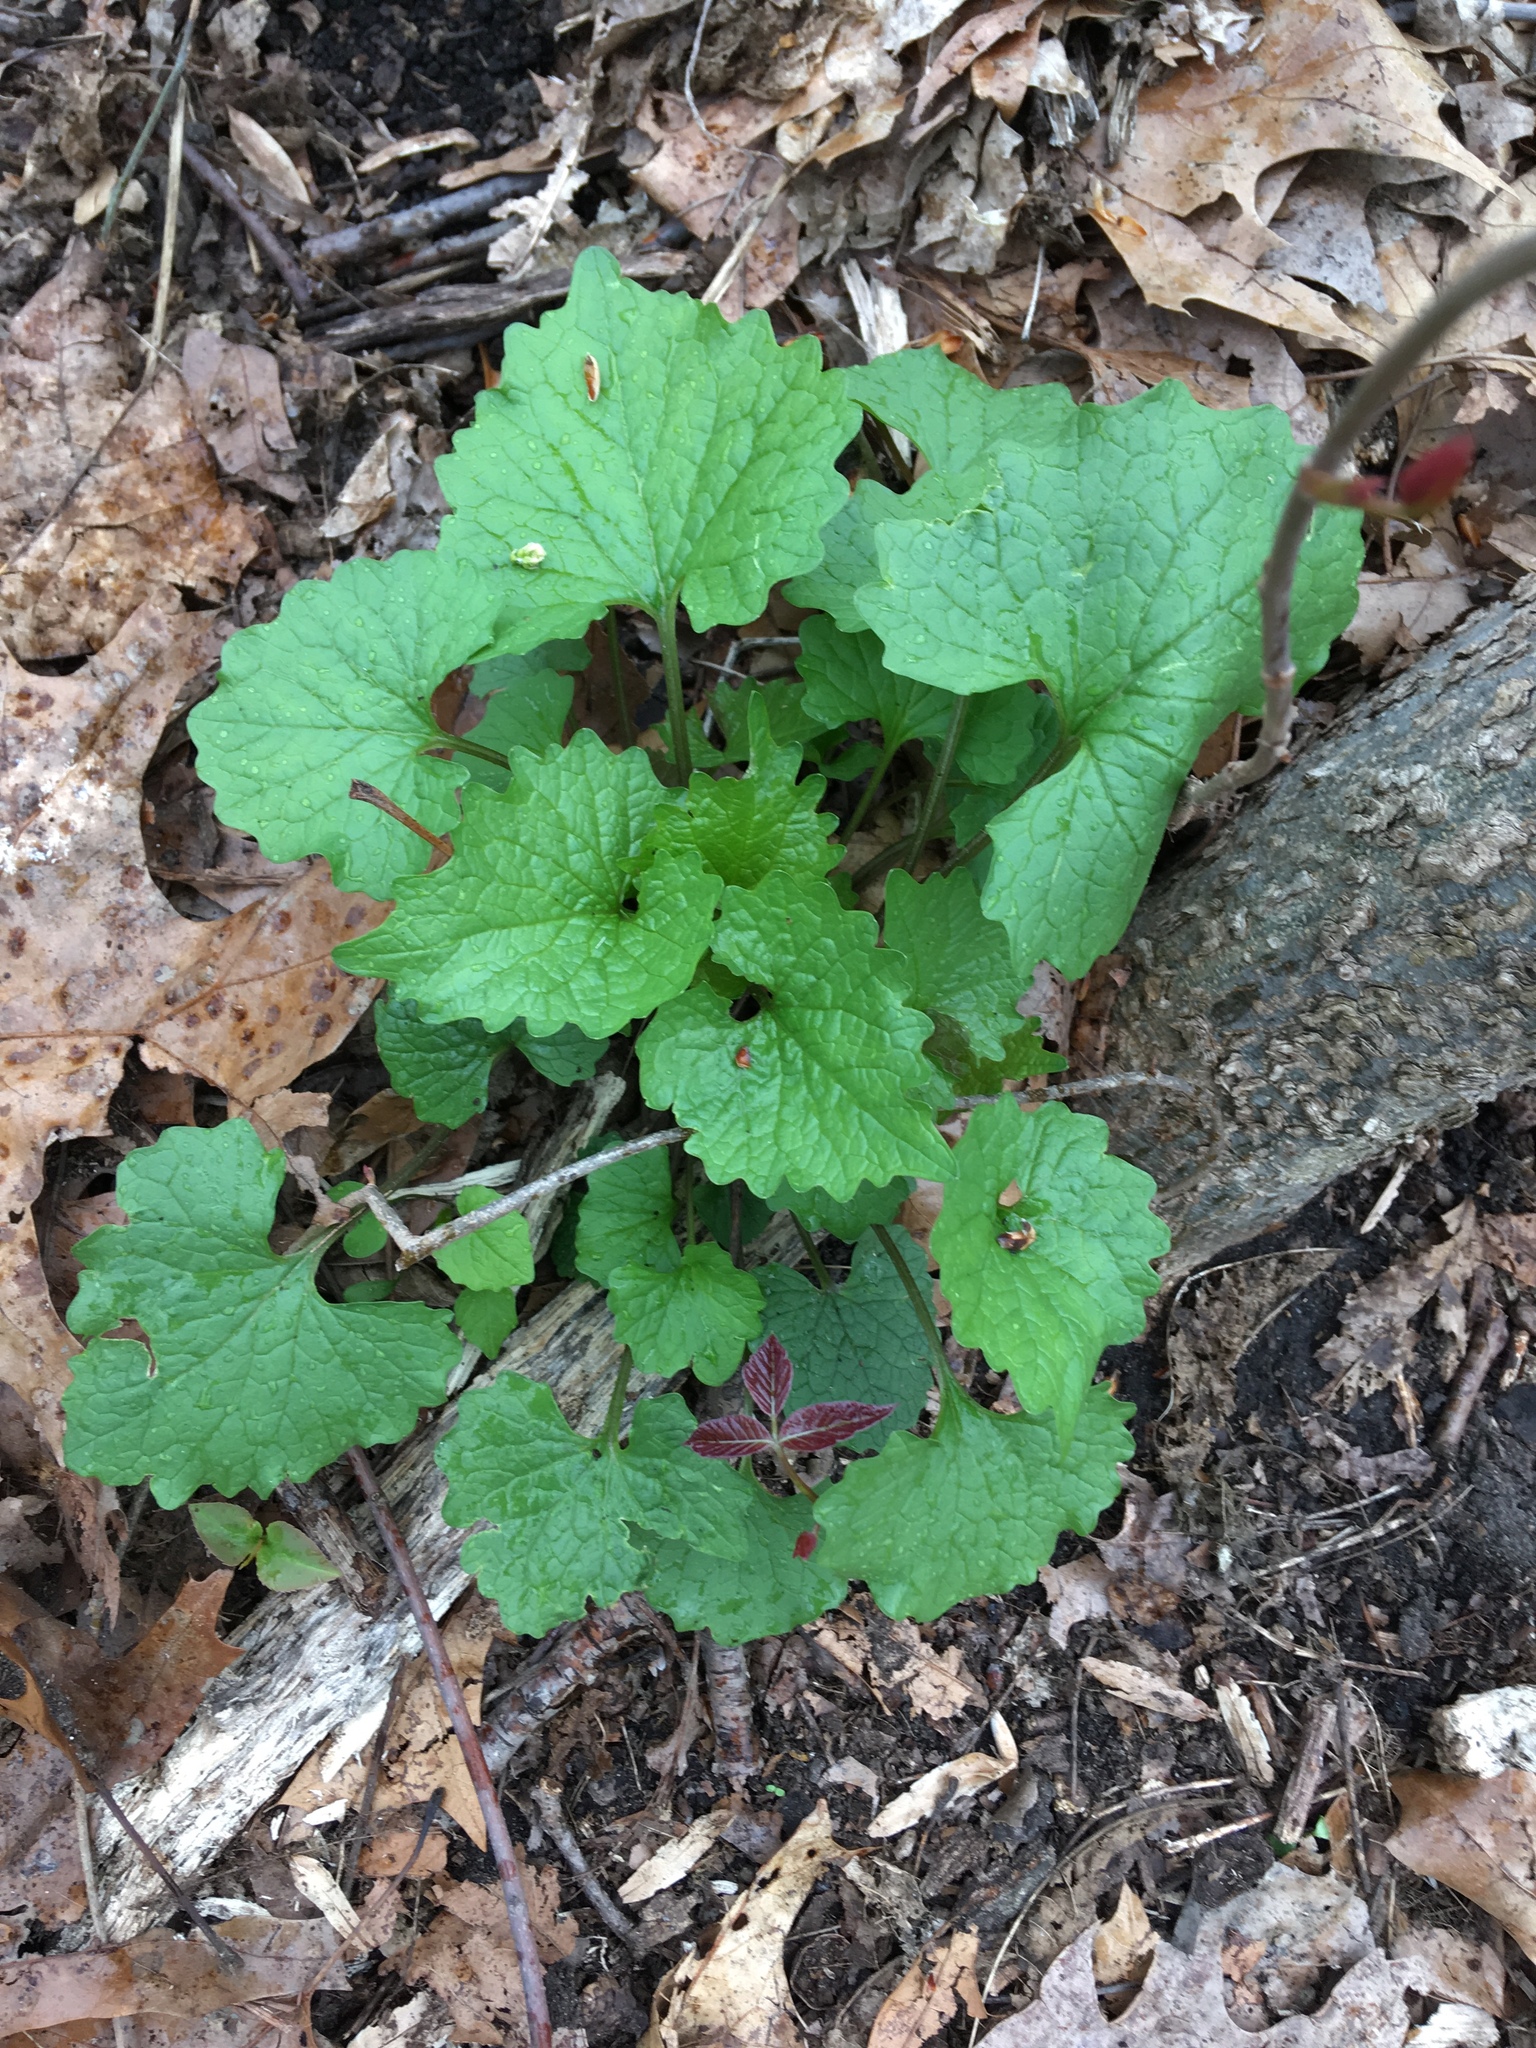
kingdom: Plantae
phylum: Tracheophyta
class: Magnoliopsida
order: Brassicales
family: Brassicaceae
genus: Alliaria
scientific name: Alliaria petiolata
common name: Garlic mustard
